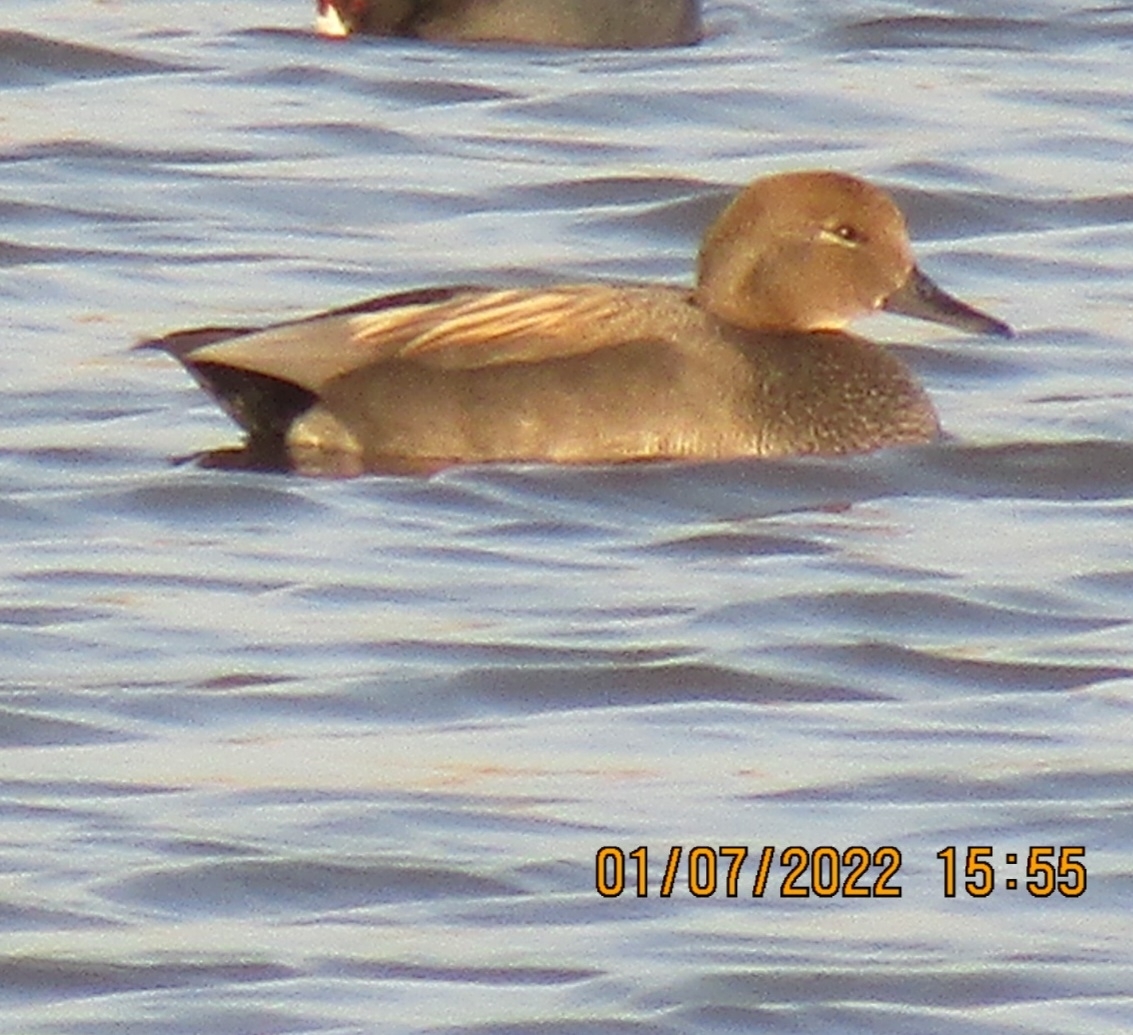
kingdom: Animalia
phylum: Chordata
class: Aves
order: Anseriformes
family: Anatidae
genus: Mareca
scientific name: Mareca strepera
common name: Gadwall
